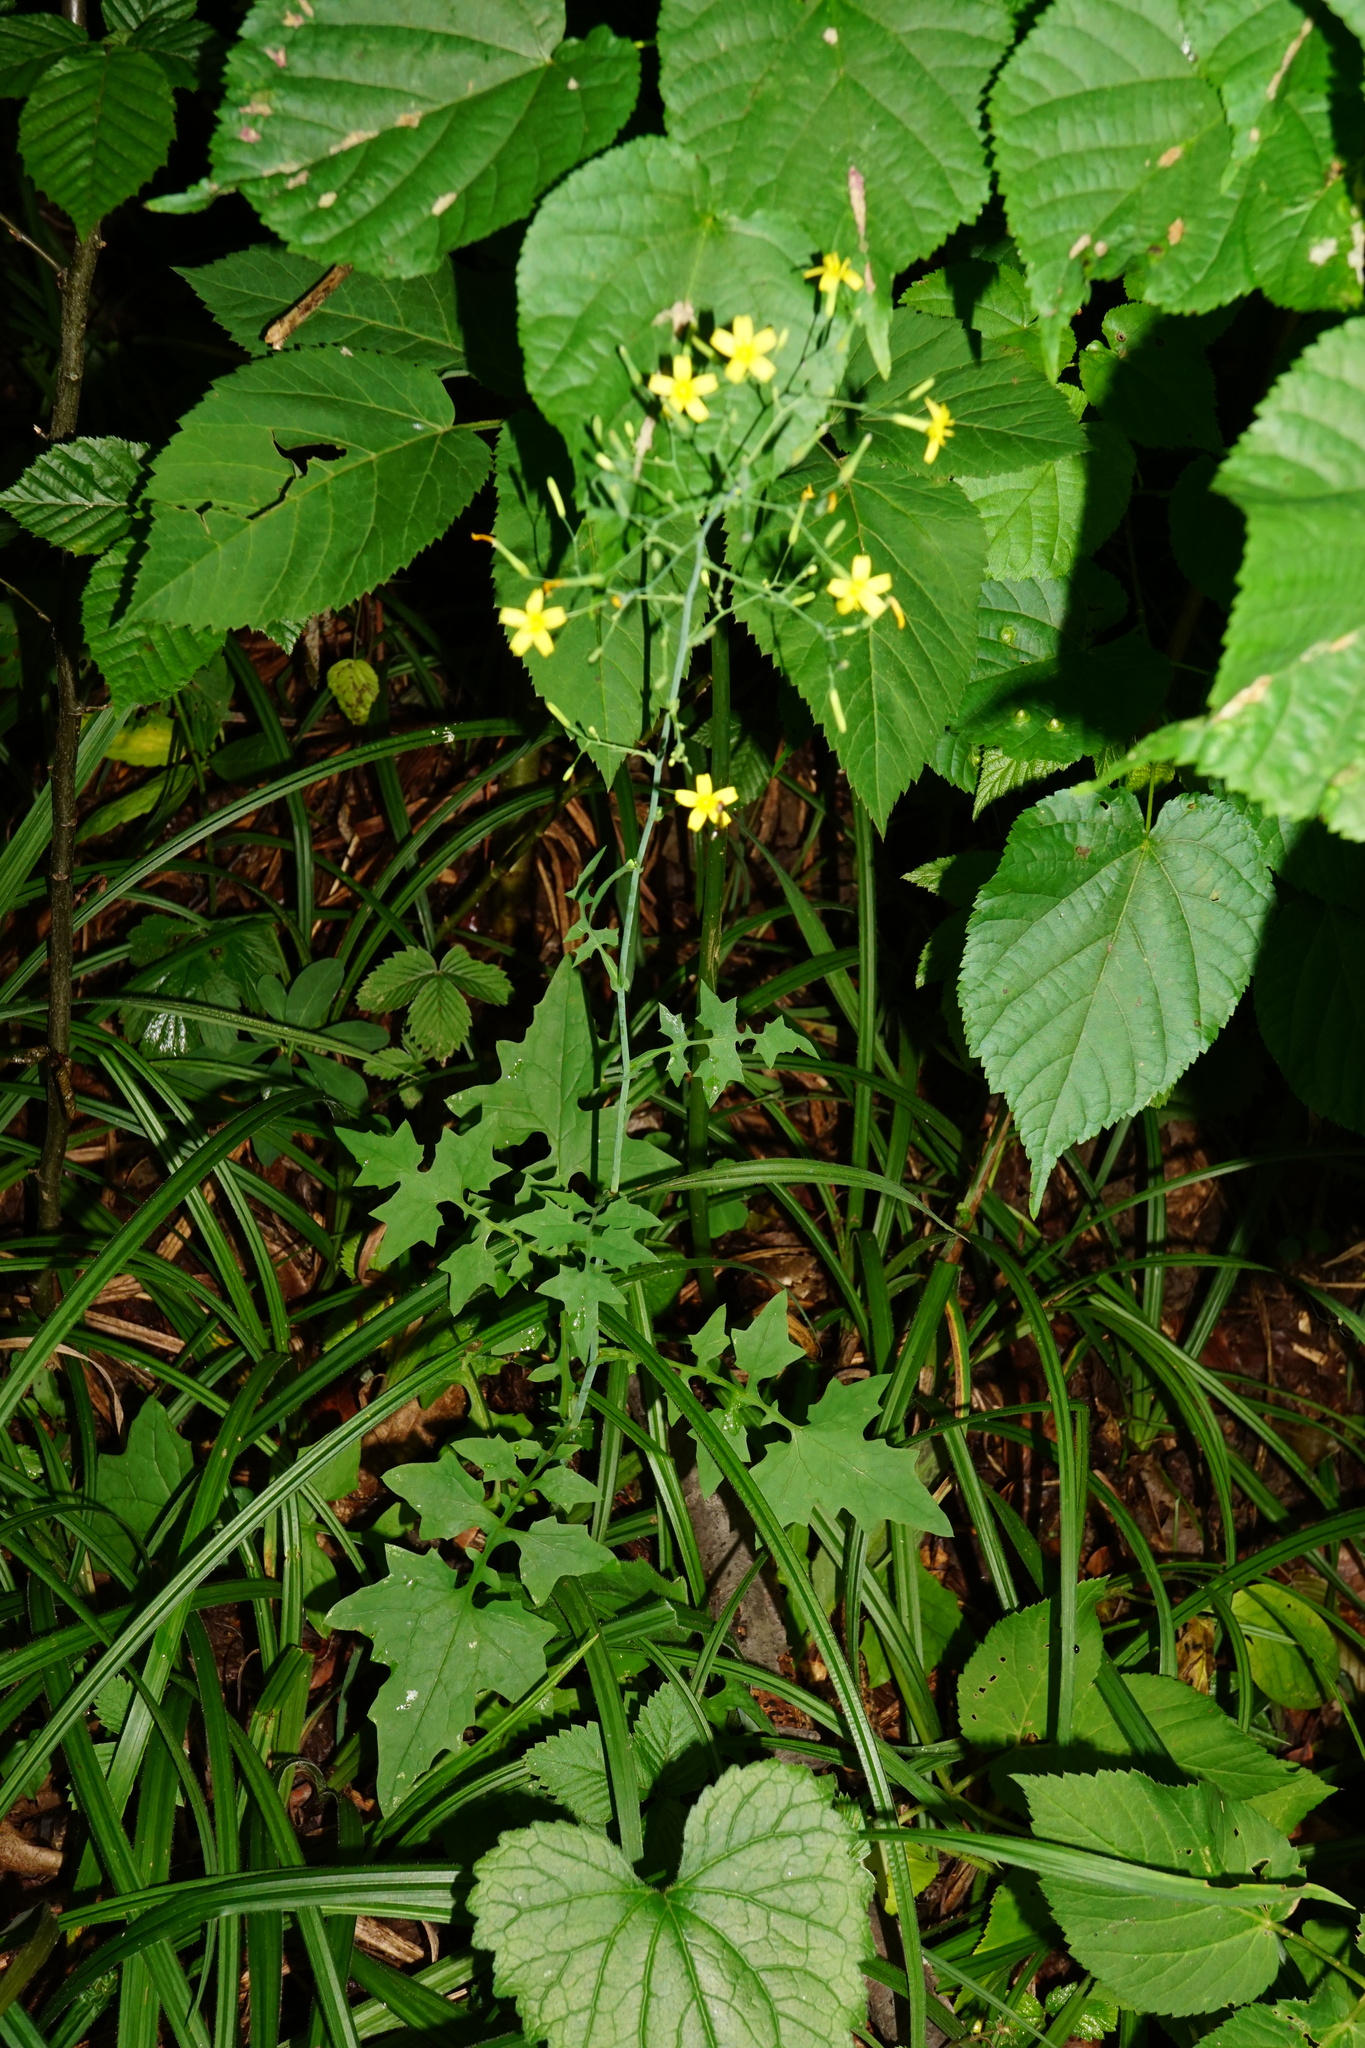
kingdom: Plantae
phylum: Tracheophyta
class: Magnoliopsida
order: Asterales
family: Asteraceae
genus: Mycelis
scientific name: Mycelis muralis
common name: Wall lettuce
